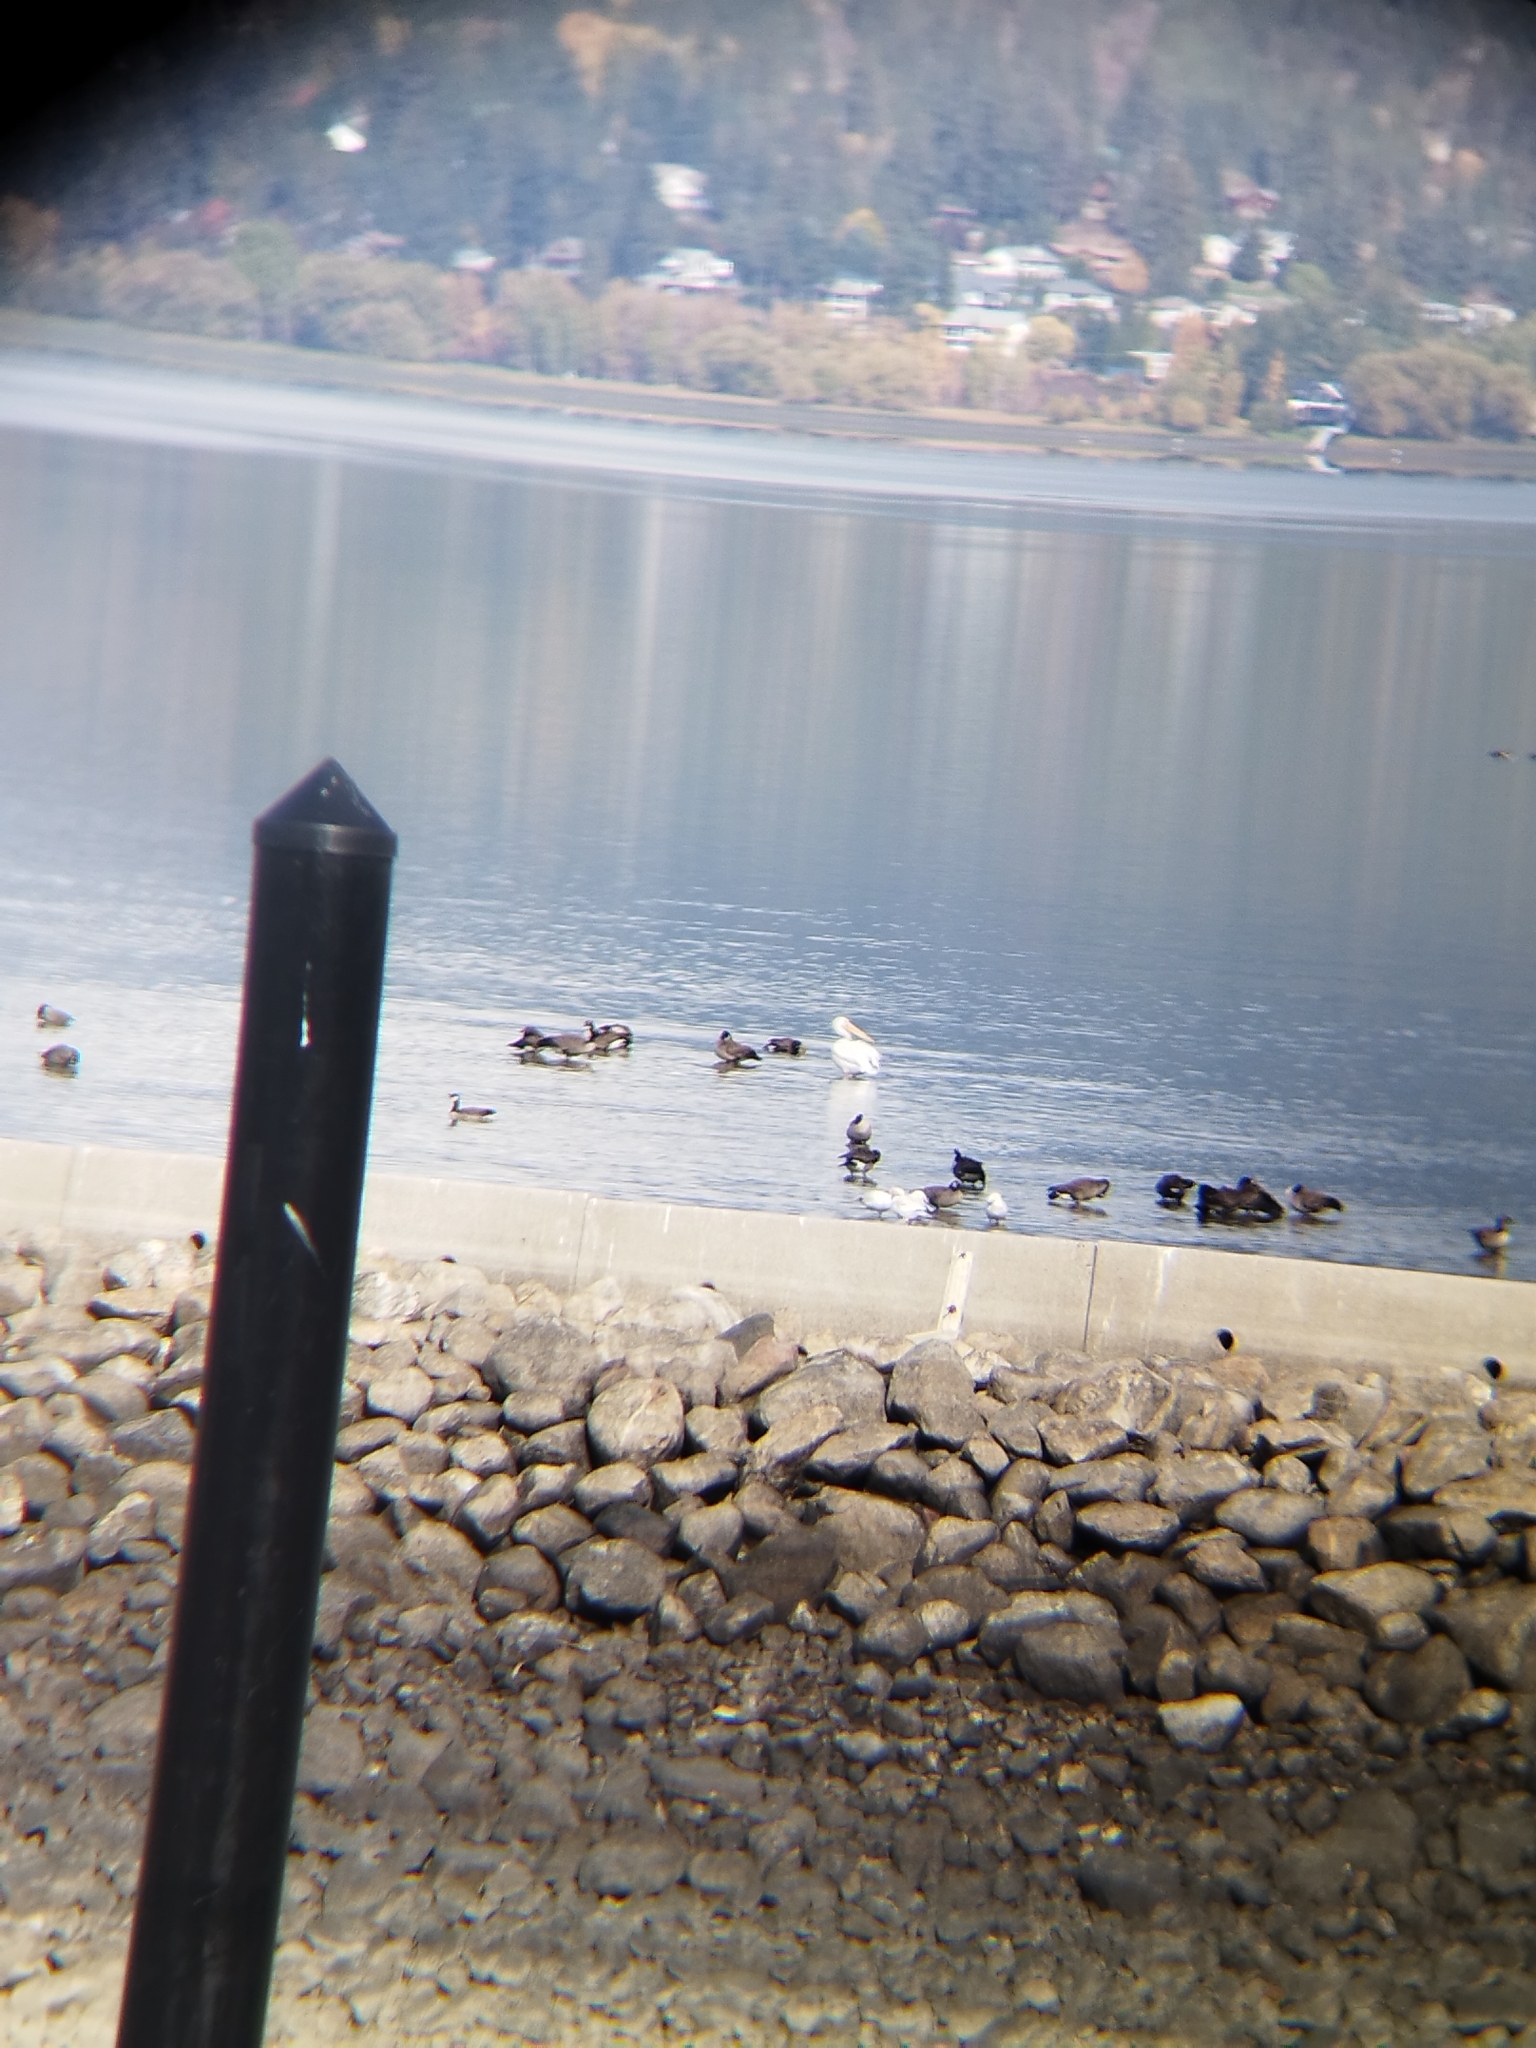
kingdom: Animalia
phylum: Chordata
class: Aves
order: Pelecaniformes
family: Pelecanidae
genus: Pelecanus
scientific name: Pelecanus erythrorhynchos
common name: American white pelican
